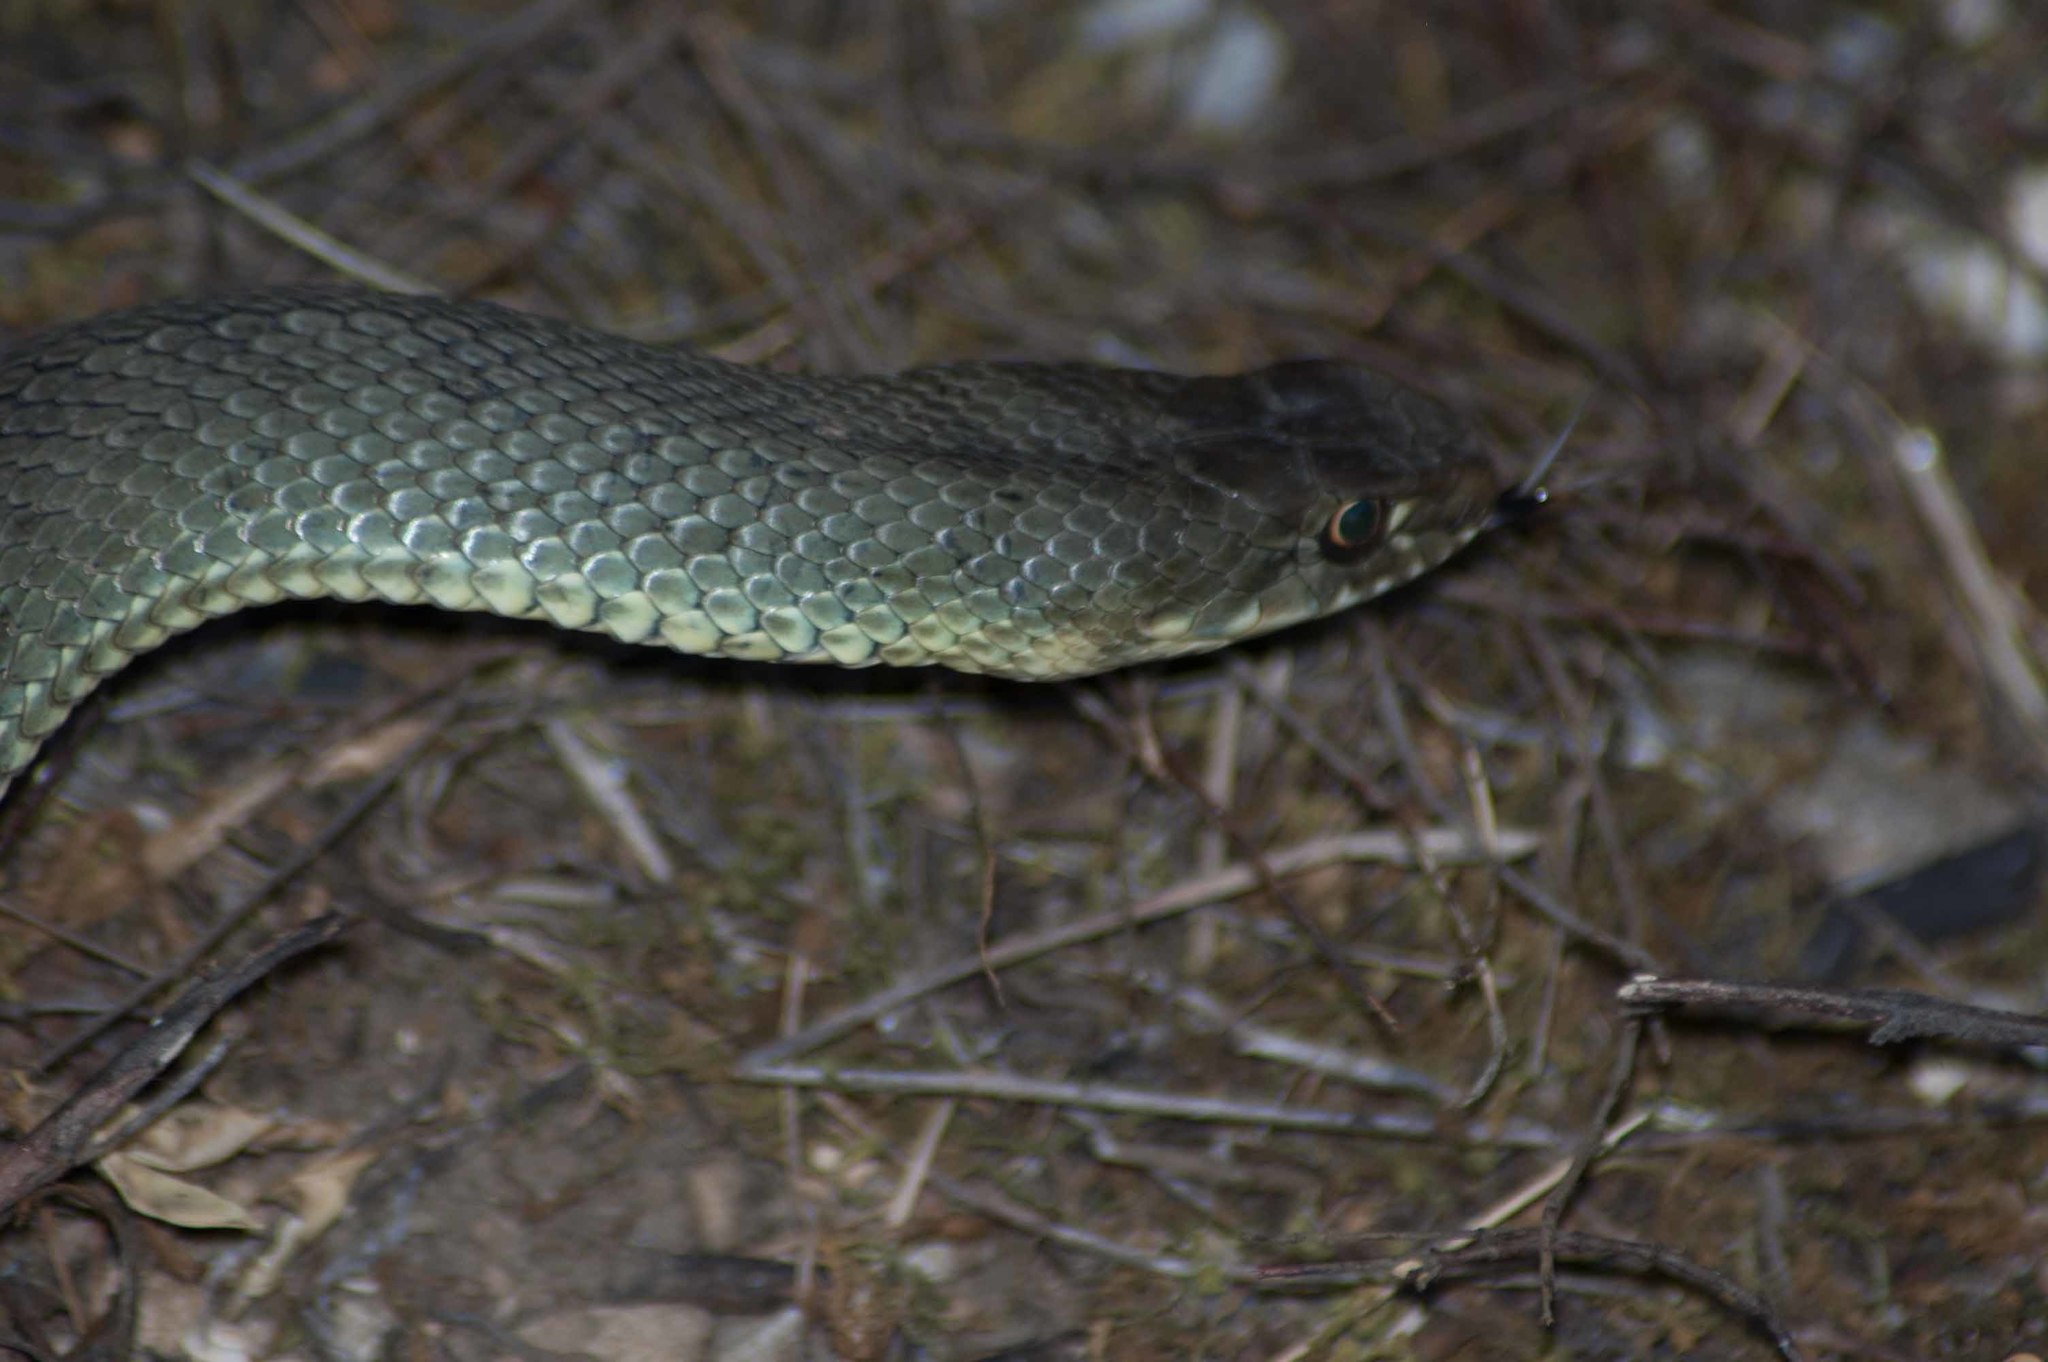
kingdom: Animalia
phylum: Chordata
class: Squamata
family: Psammophiidae
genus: Malpolon
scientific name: Malpolon monspessulanus
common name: Montpellier snake
